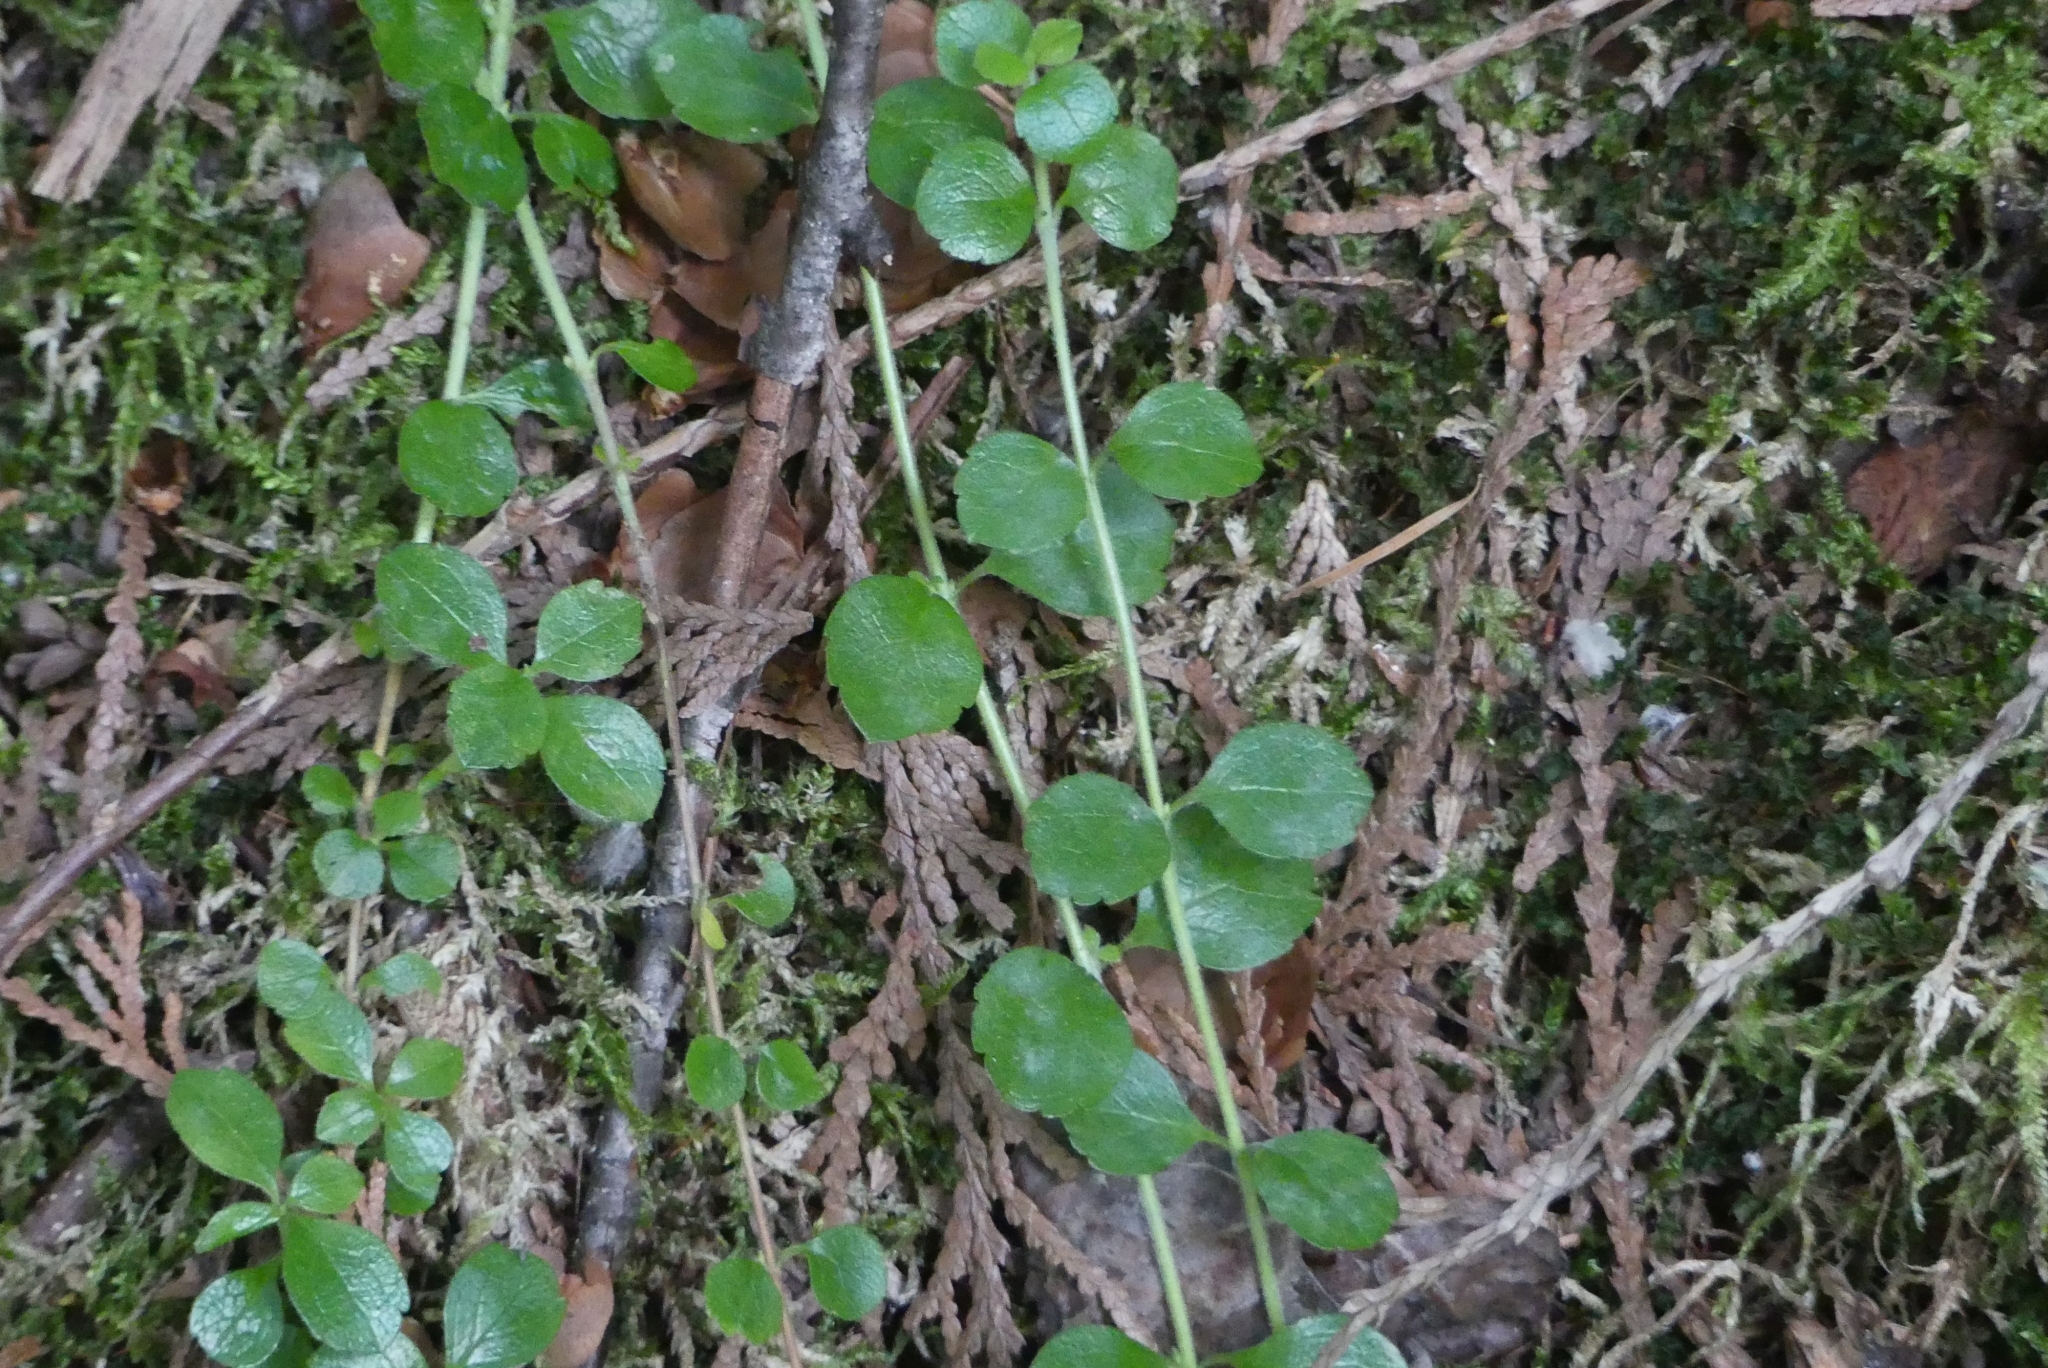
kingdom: Plantae
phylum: Tracheophyta
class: Magnoliopsida
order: Dipsacales
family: Caprifoliaceae
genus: Linnaea
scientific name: Linnaea borealis
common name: Twinflower
